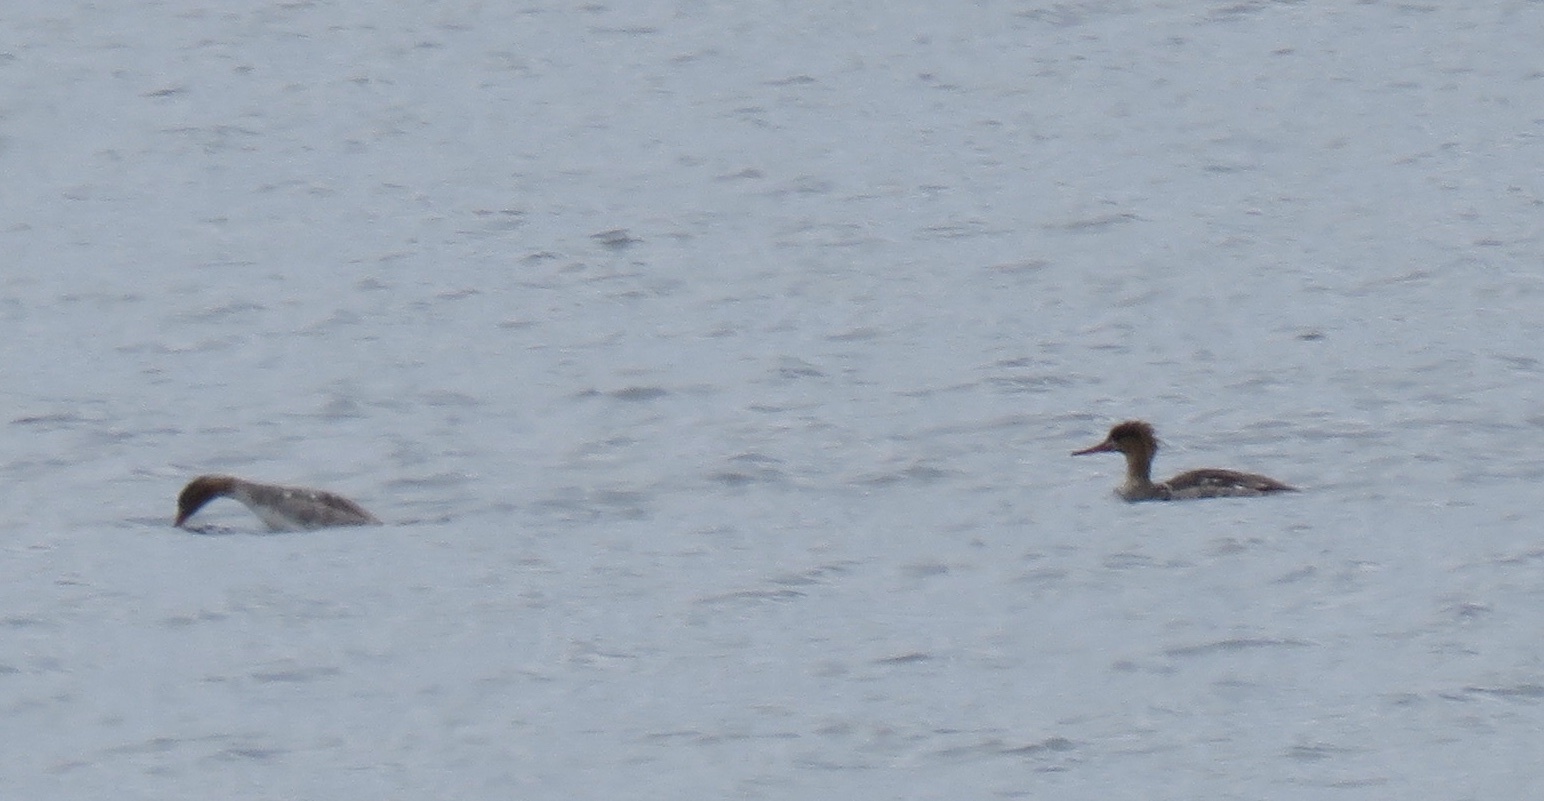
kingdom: Animalia
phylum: Chordata
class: Aves
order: Anseriformes
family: Anatidae
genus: Mergus
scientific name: Mergus serrator
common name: Red-breasted merganser
